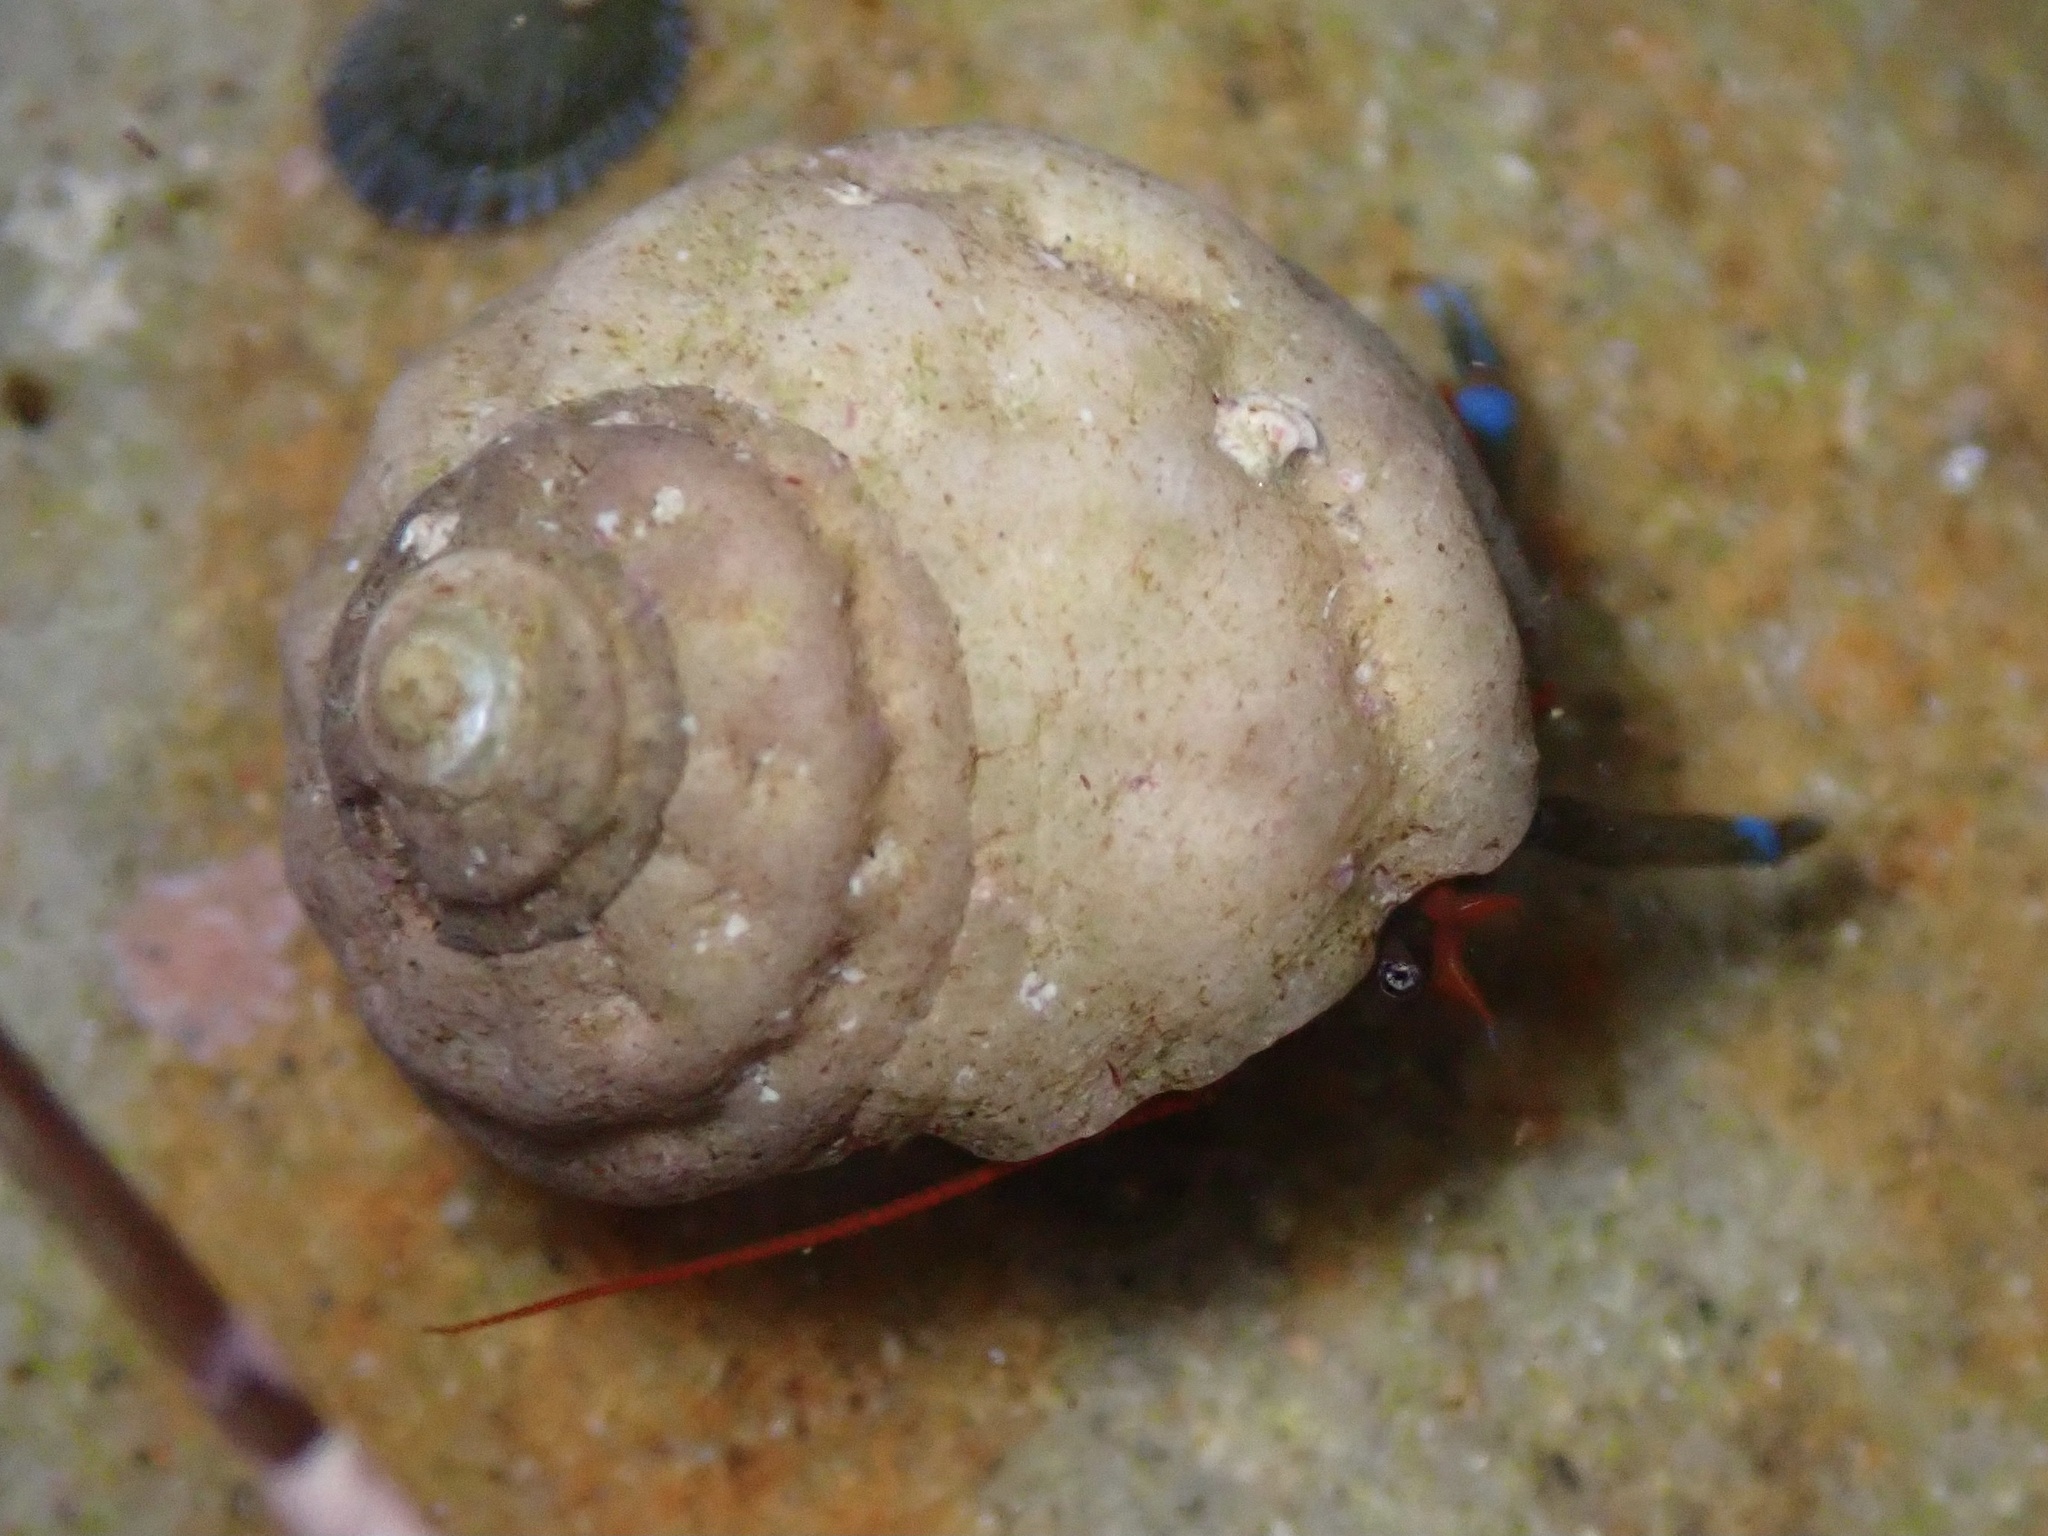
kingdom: Animalia
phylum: Mollusca
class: Gastropoda
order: Trochida
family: Tegulidae
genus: Tegula
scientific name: Tegula aureotincta
